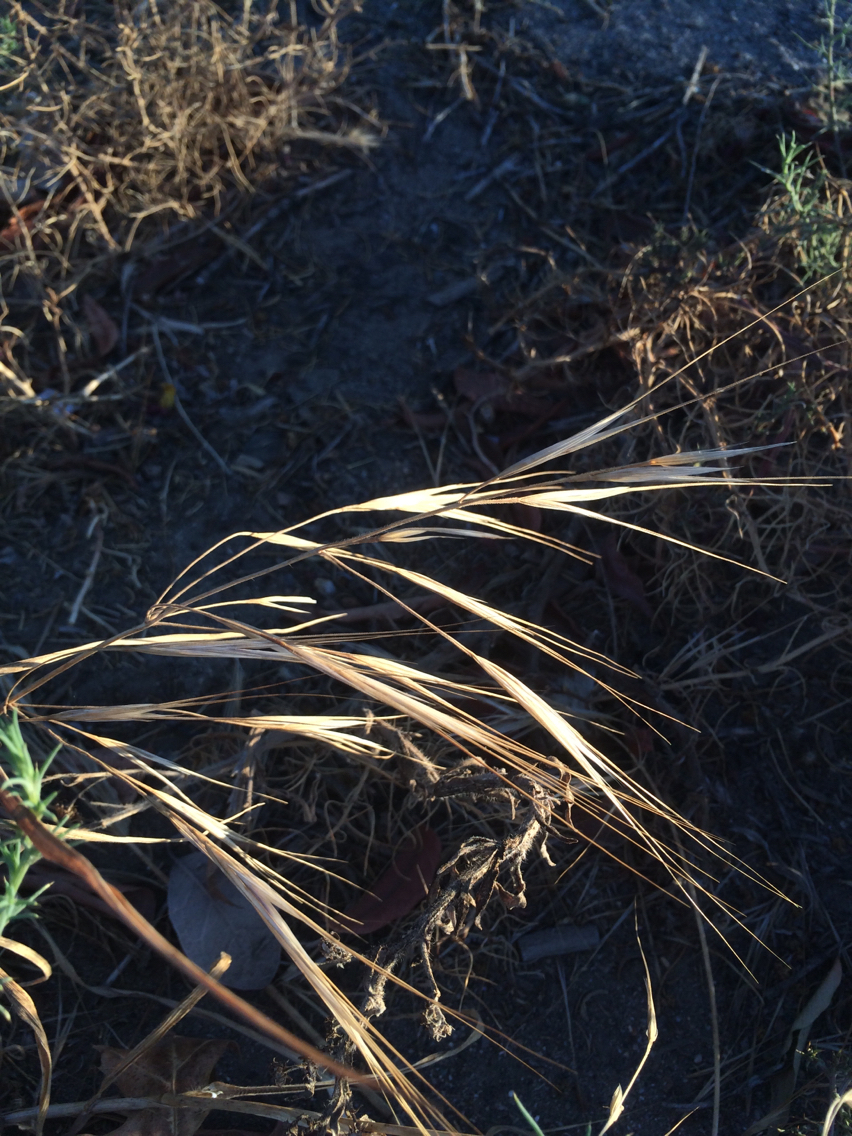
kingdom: Plantae
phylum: Tracheophyta
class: Liliopsida
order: Poales
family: Poaceae
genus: Bromus
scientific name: Bromus diandrus
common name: Ripgut brome
